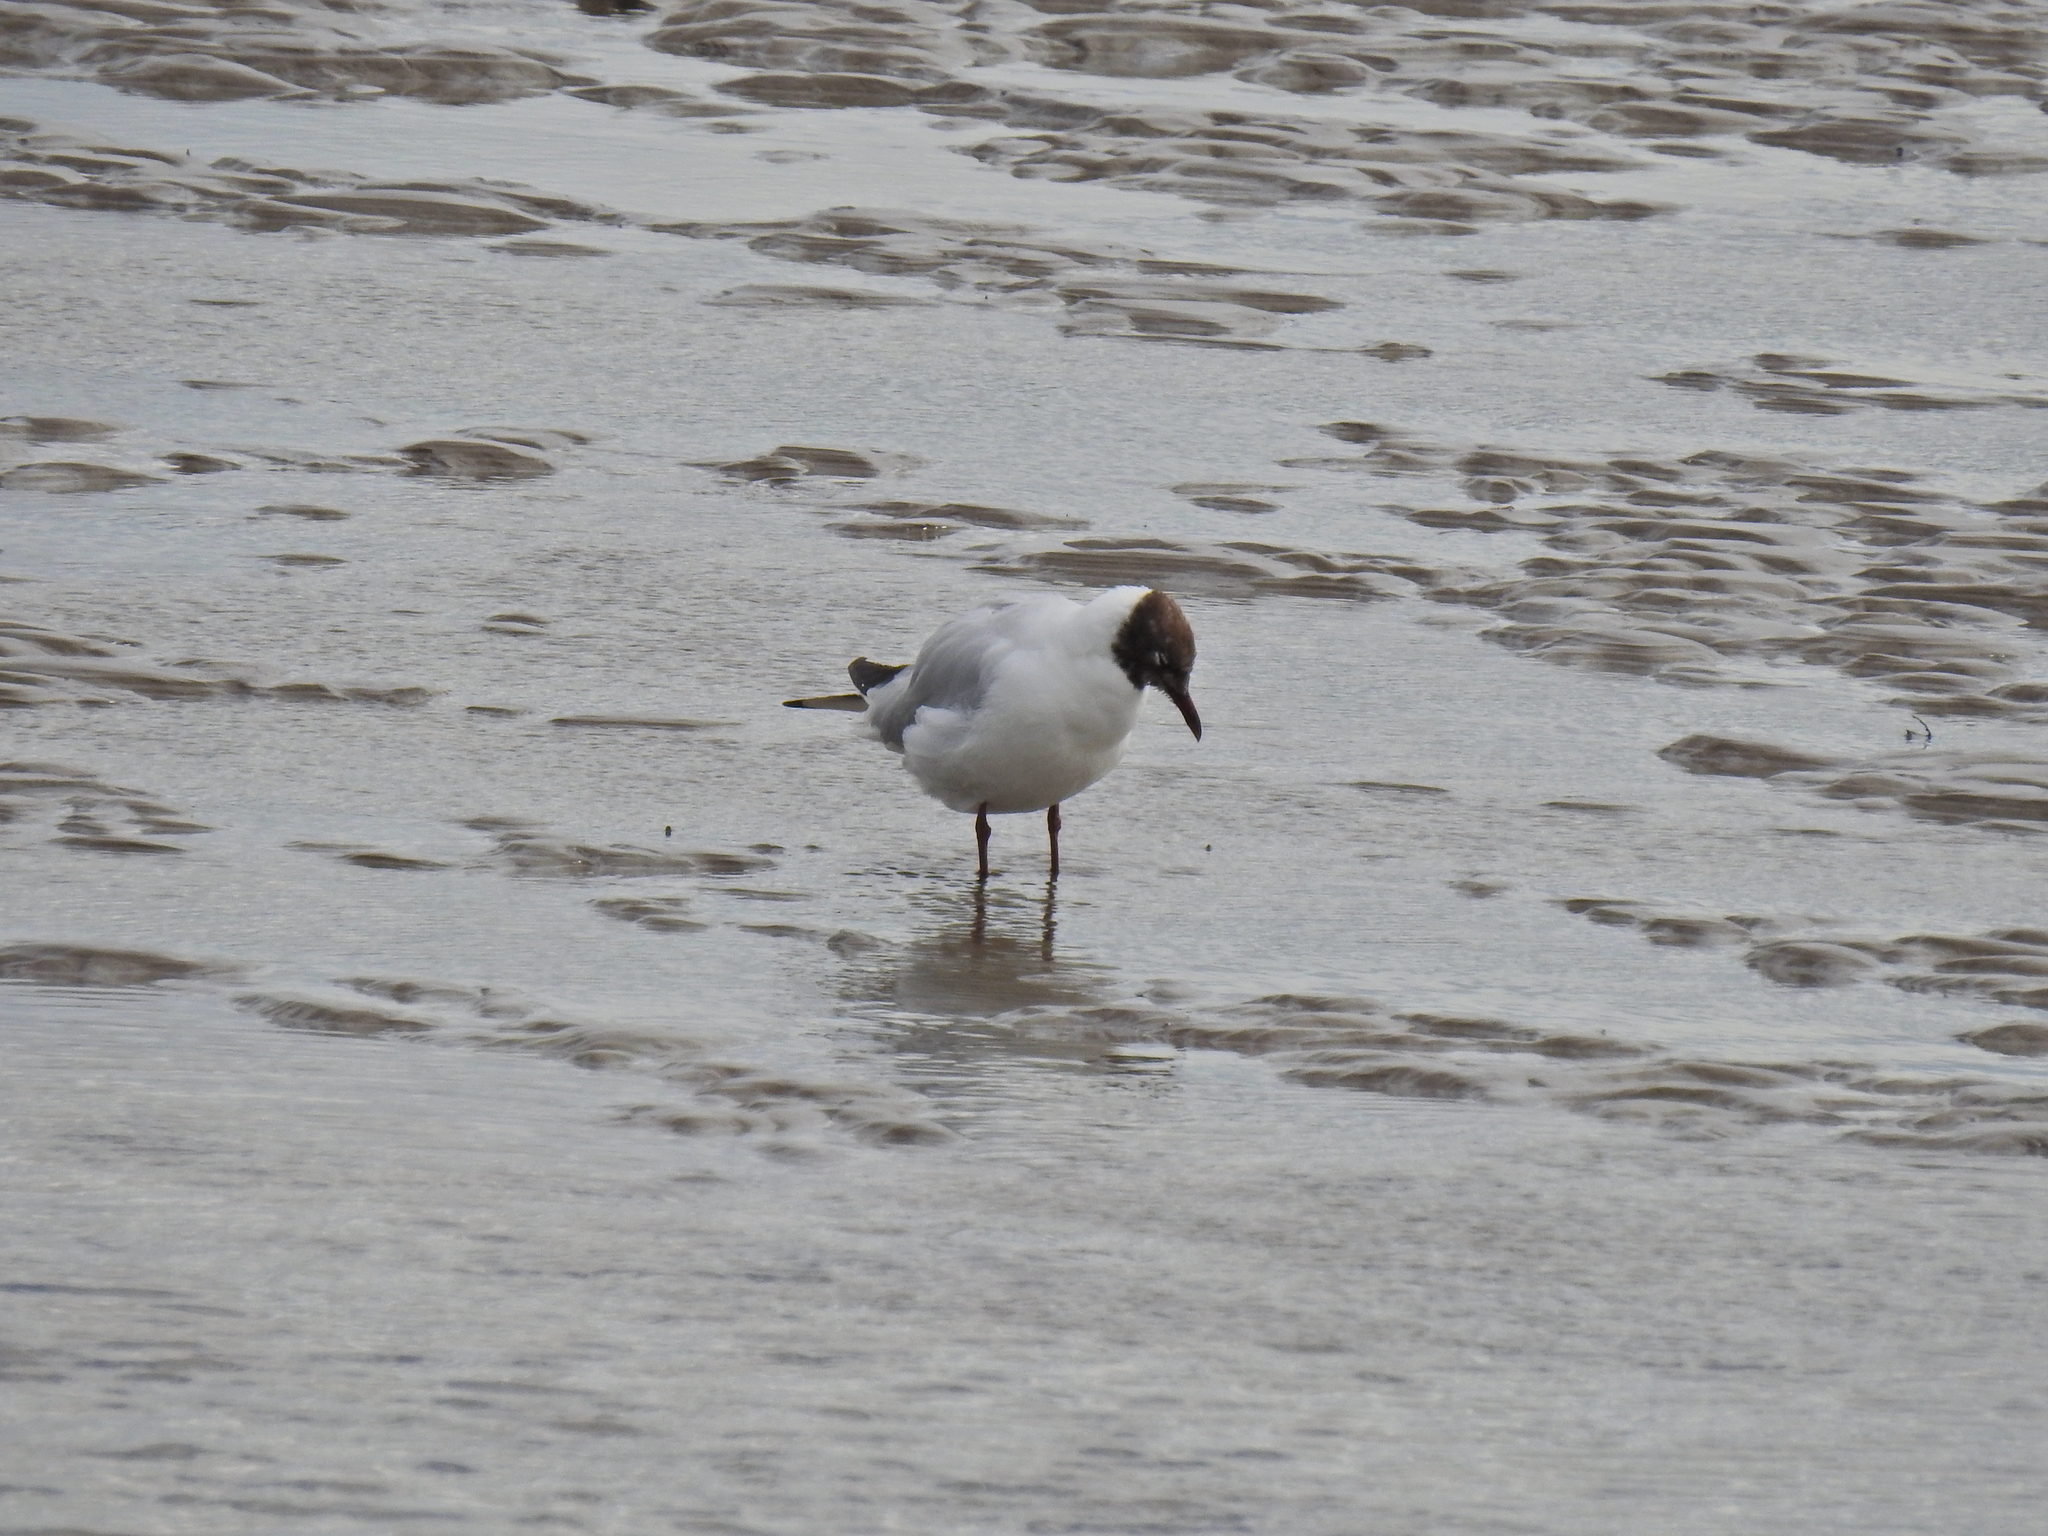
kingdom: Animalia
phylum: Chordata
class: Aves
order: Charadriiformes
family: Laridae
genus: Chroicocephalus
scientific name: Chroicocephalus ridibundus
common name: Black-headed gull
